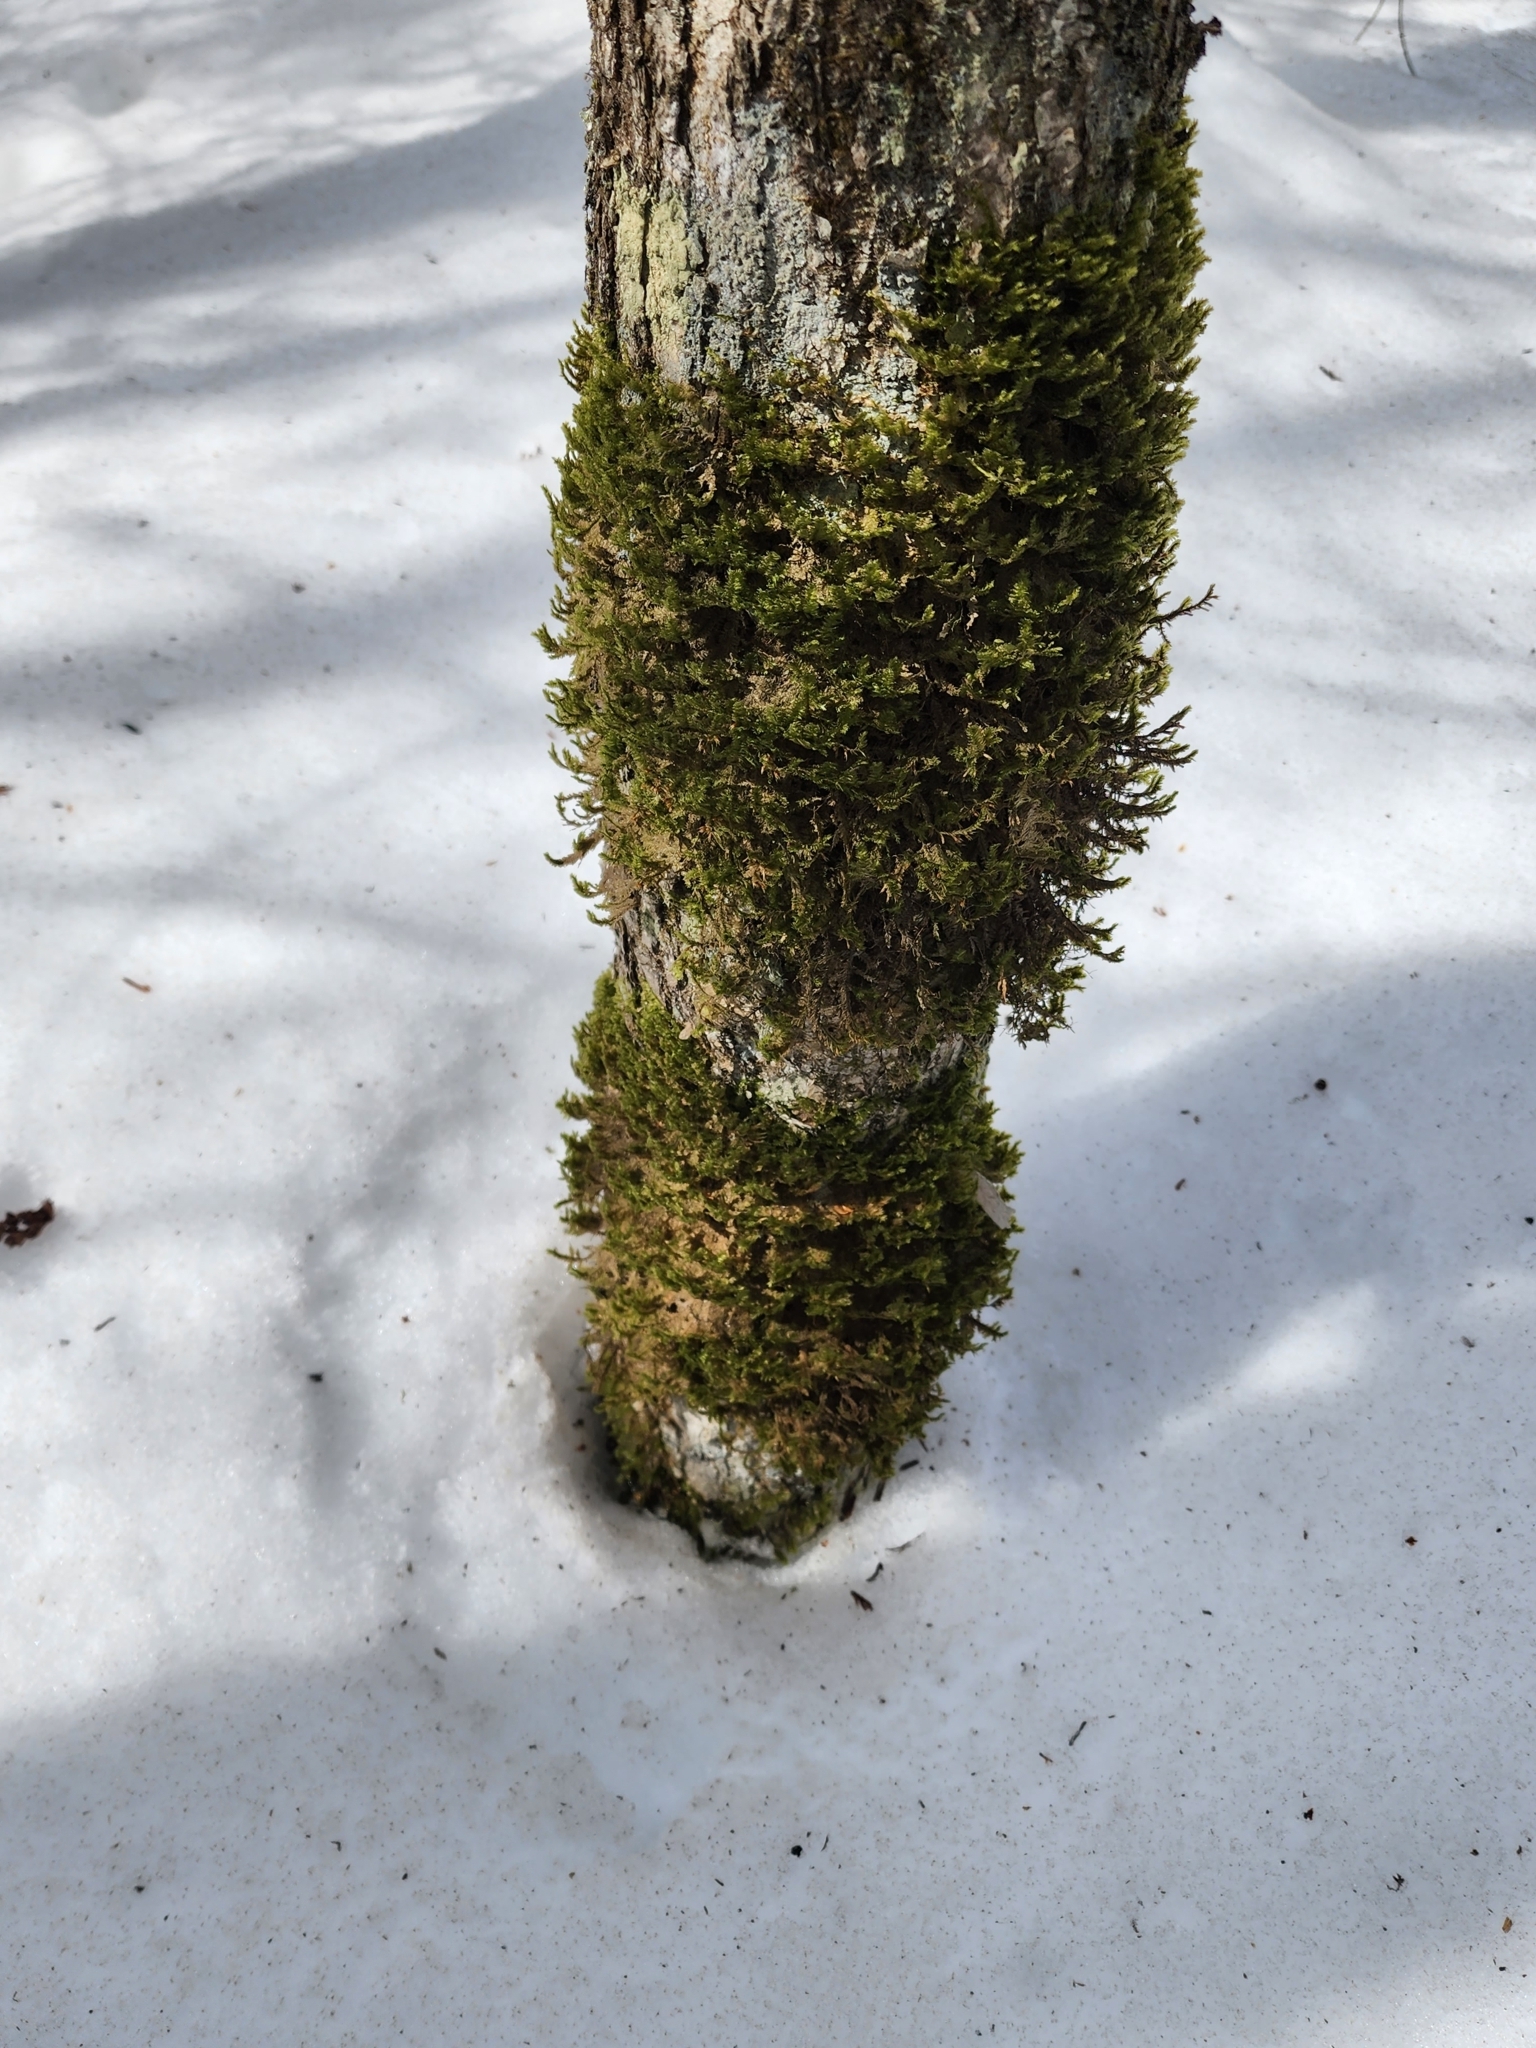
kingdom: Plantae
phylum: Bryophyta
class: Bryopsida
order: Hypnales
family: Neckeraceae
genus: Neckera
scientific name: Neckera pennata
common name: Feathery neckera
